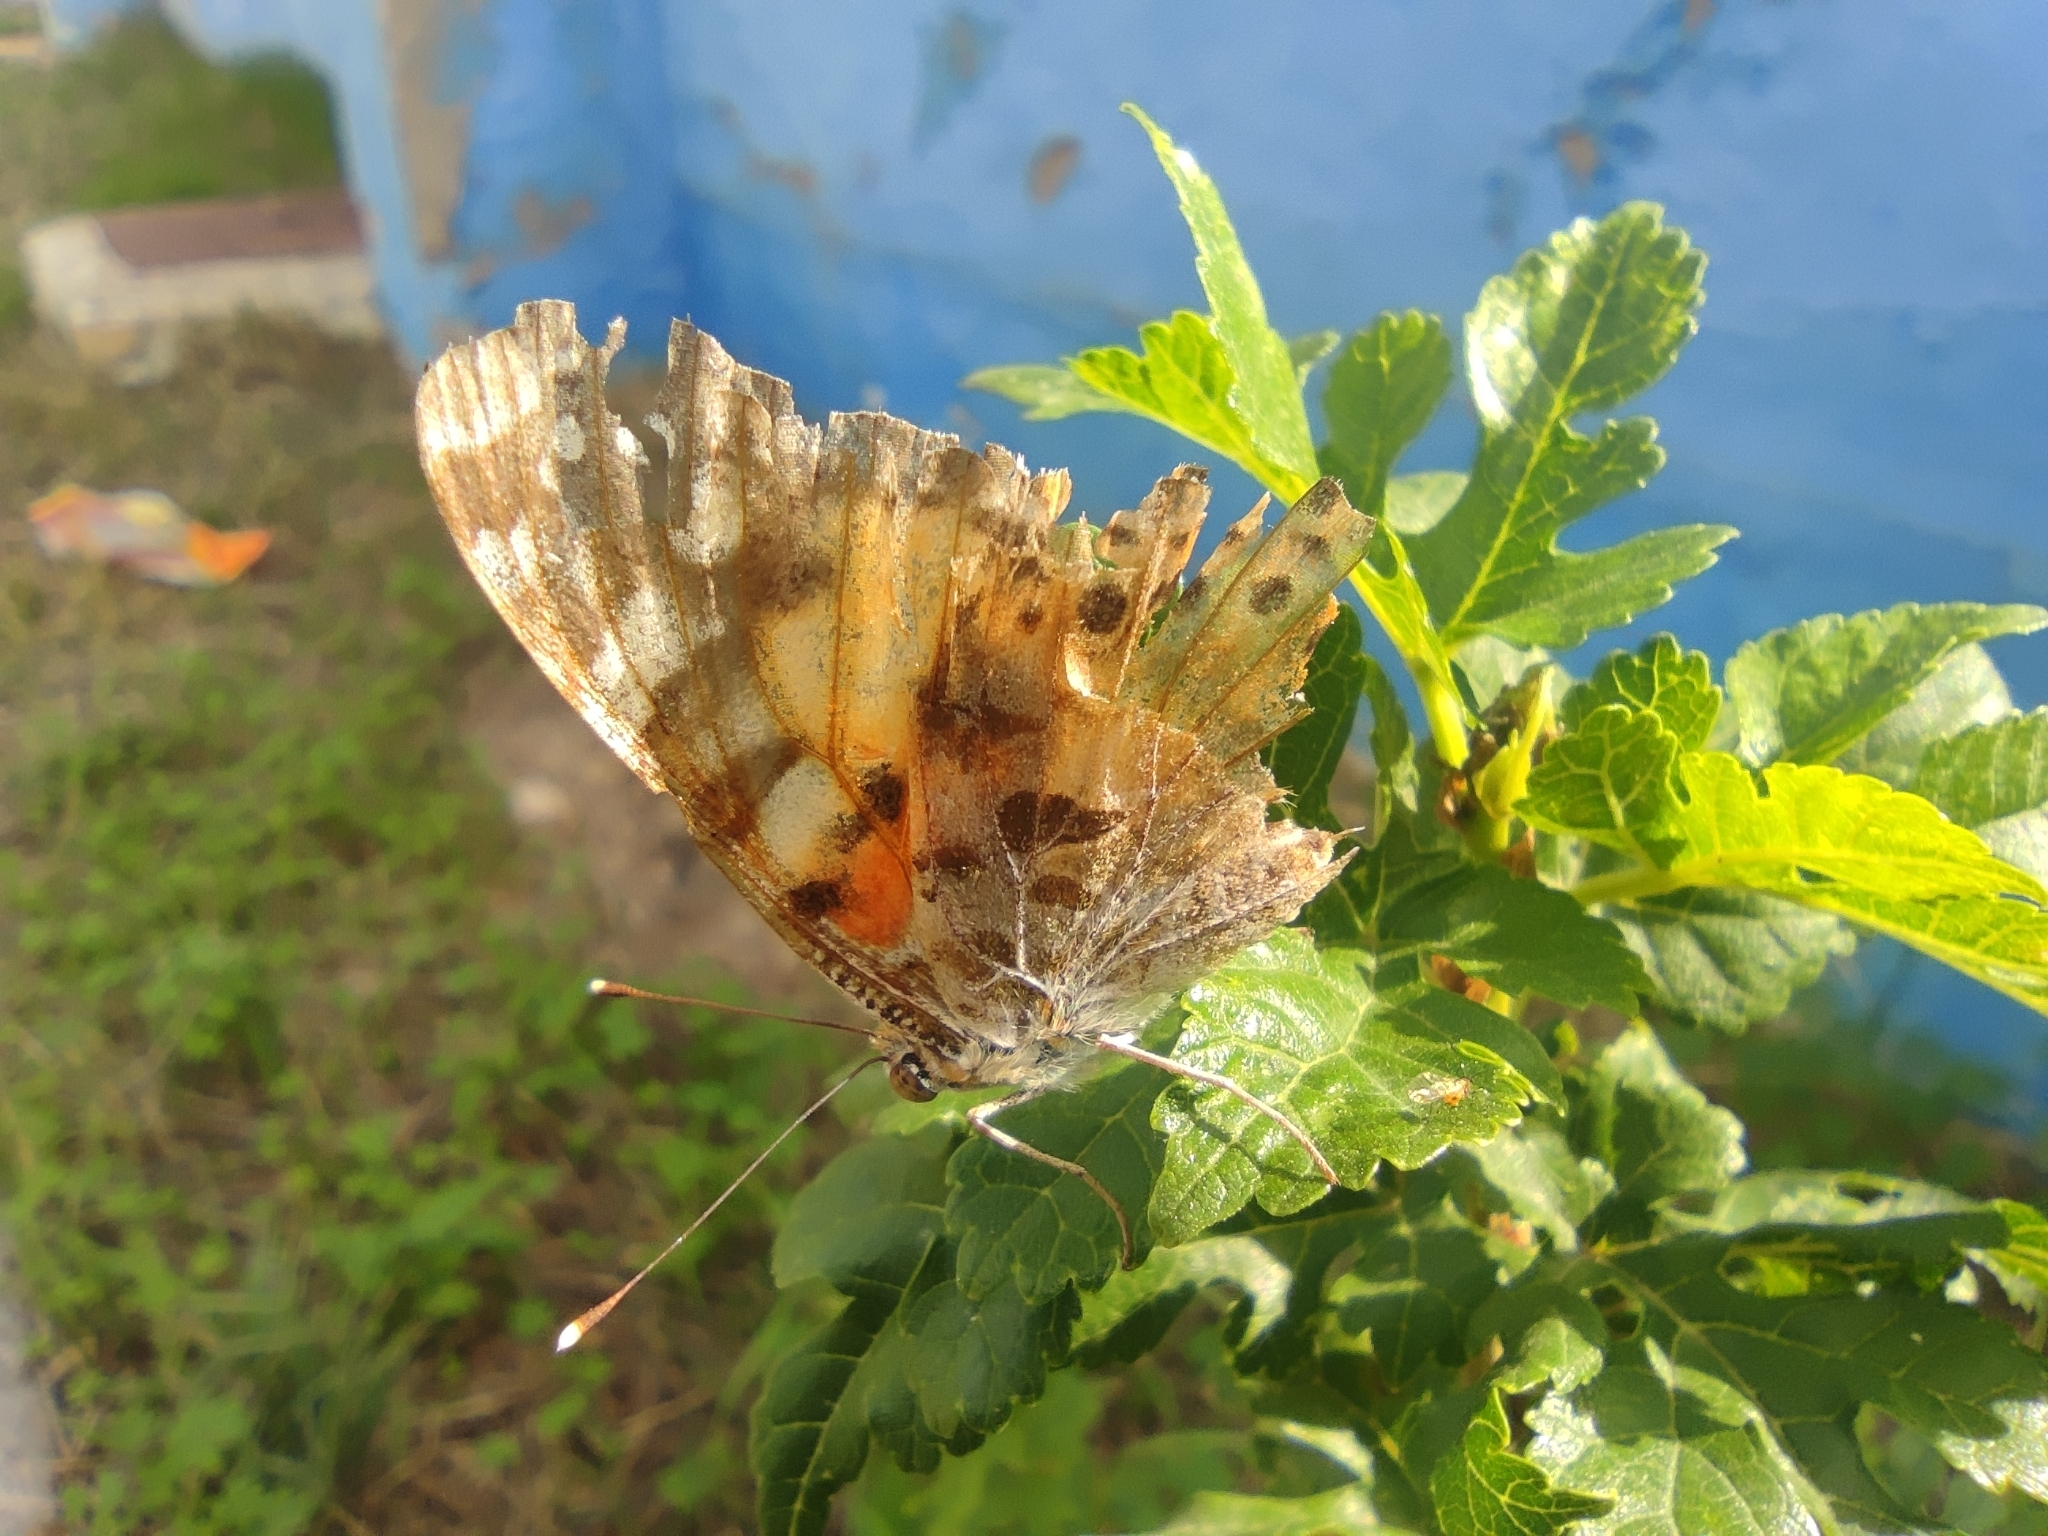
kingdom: Animalia
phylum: Arthropoda
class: Insecta
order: Lepidoptera
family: Nymphalidae
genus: Vanessa
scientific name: Vanessa cardui
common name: Painted lady
